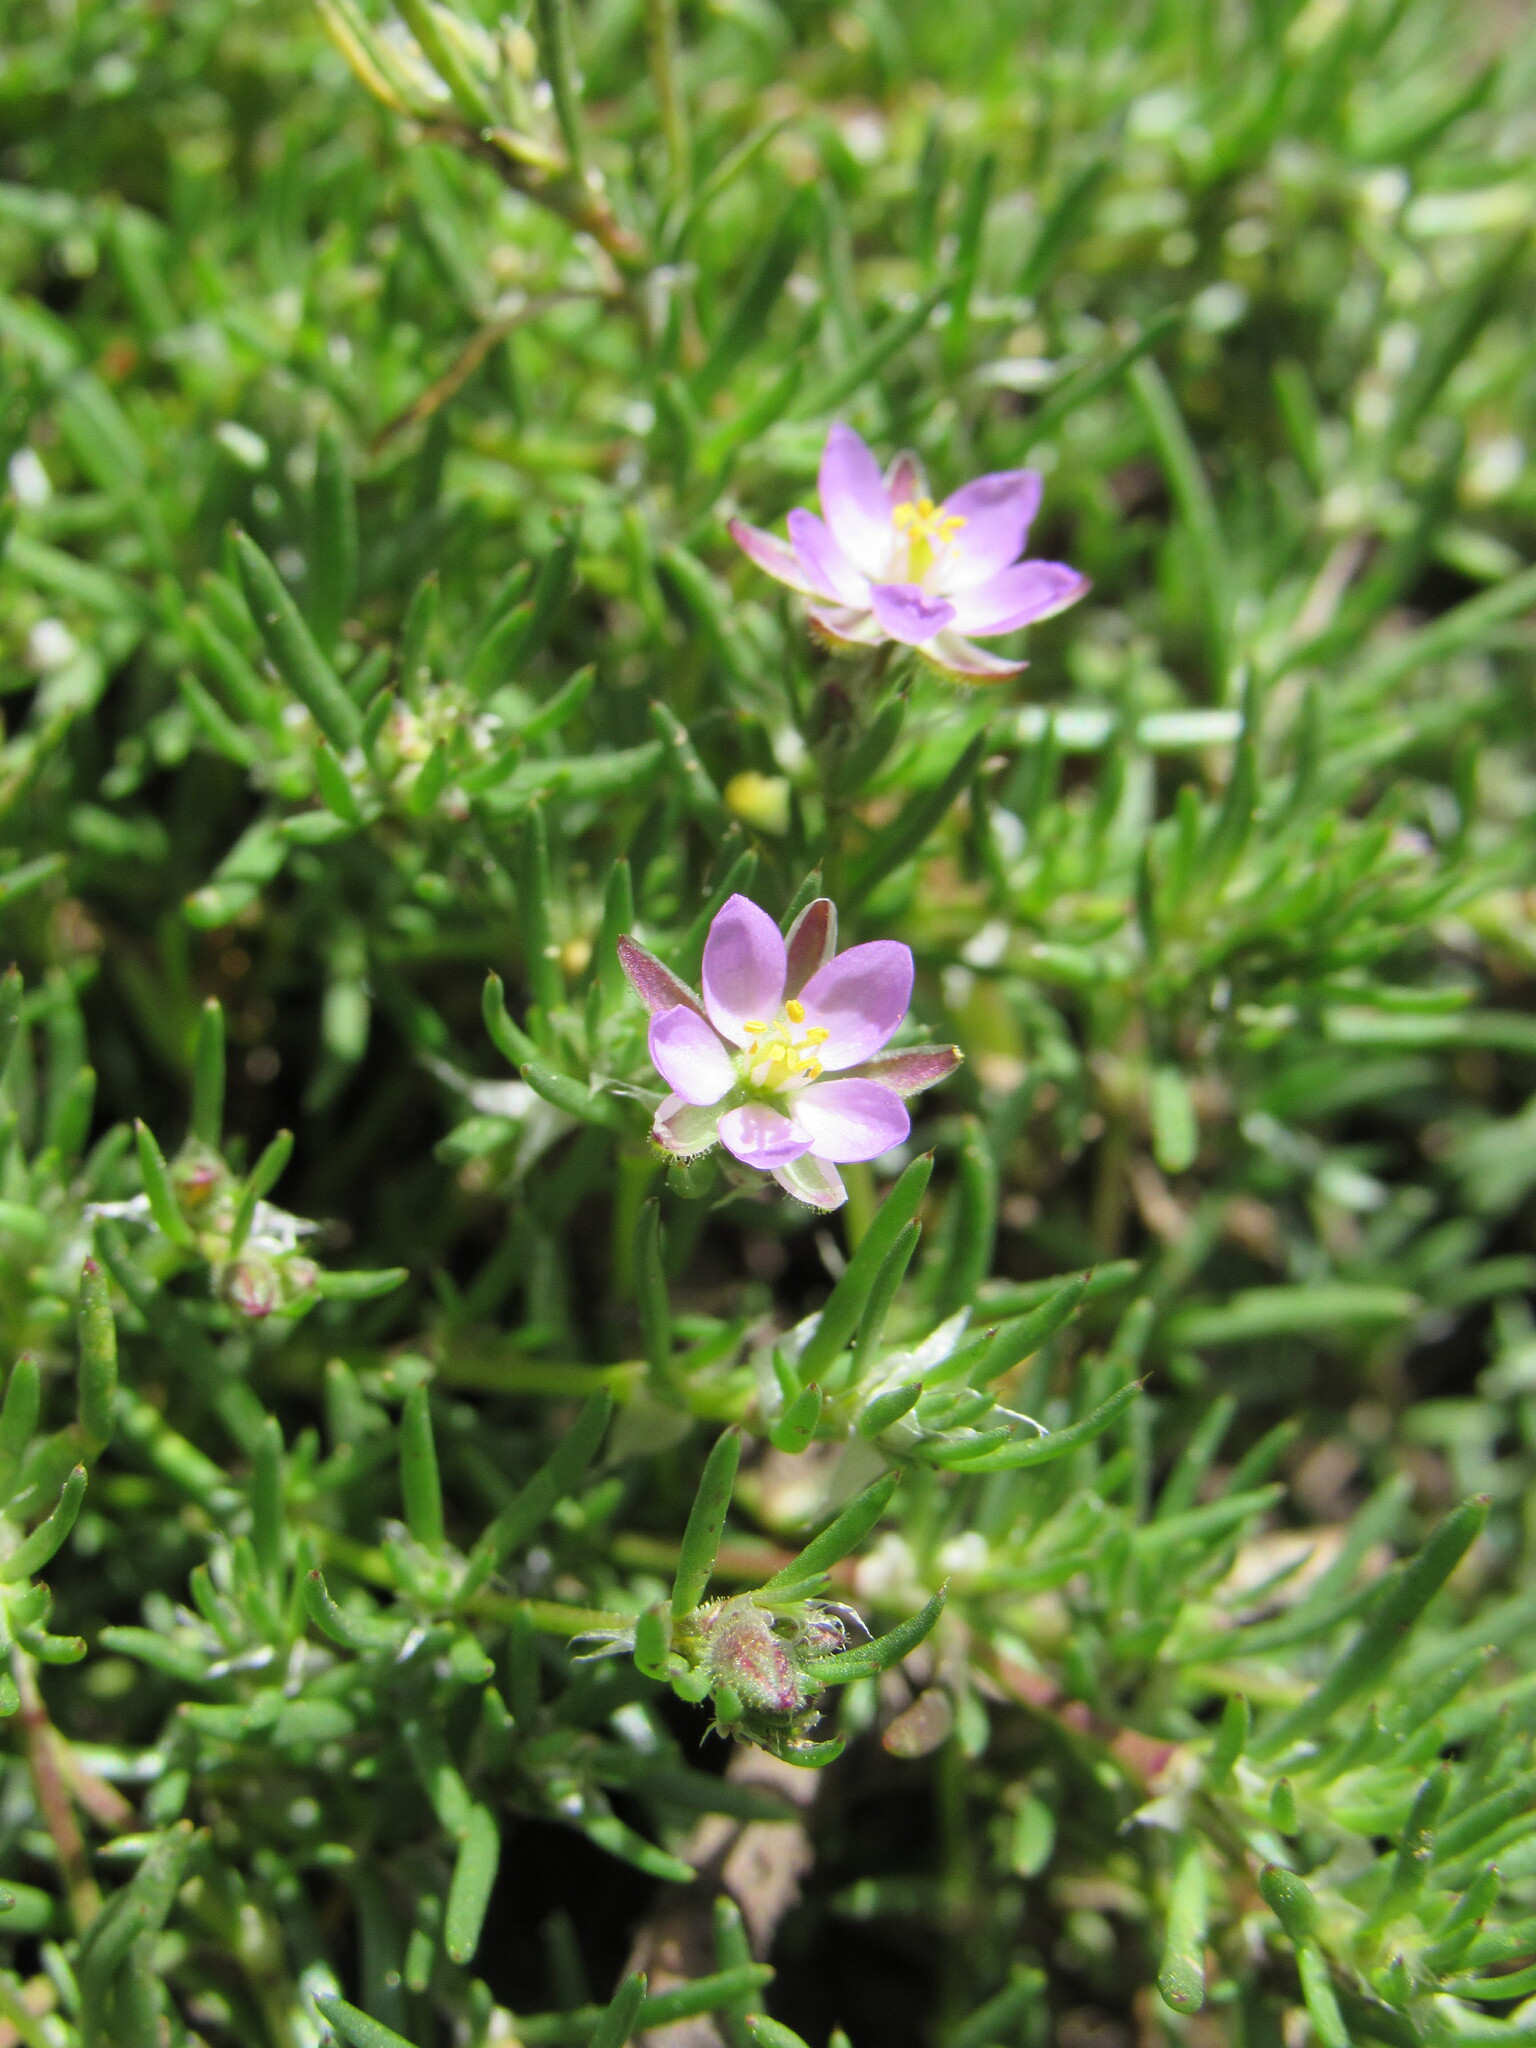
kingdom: Plantae
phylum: Tracheophyta
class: Magnoliopsida
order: Caryophyllales
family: Caryophyllaceae
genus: Spergularia
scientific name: Spergularia rubra
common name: Red sand-spurrey
